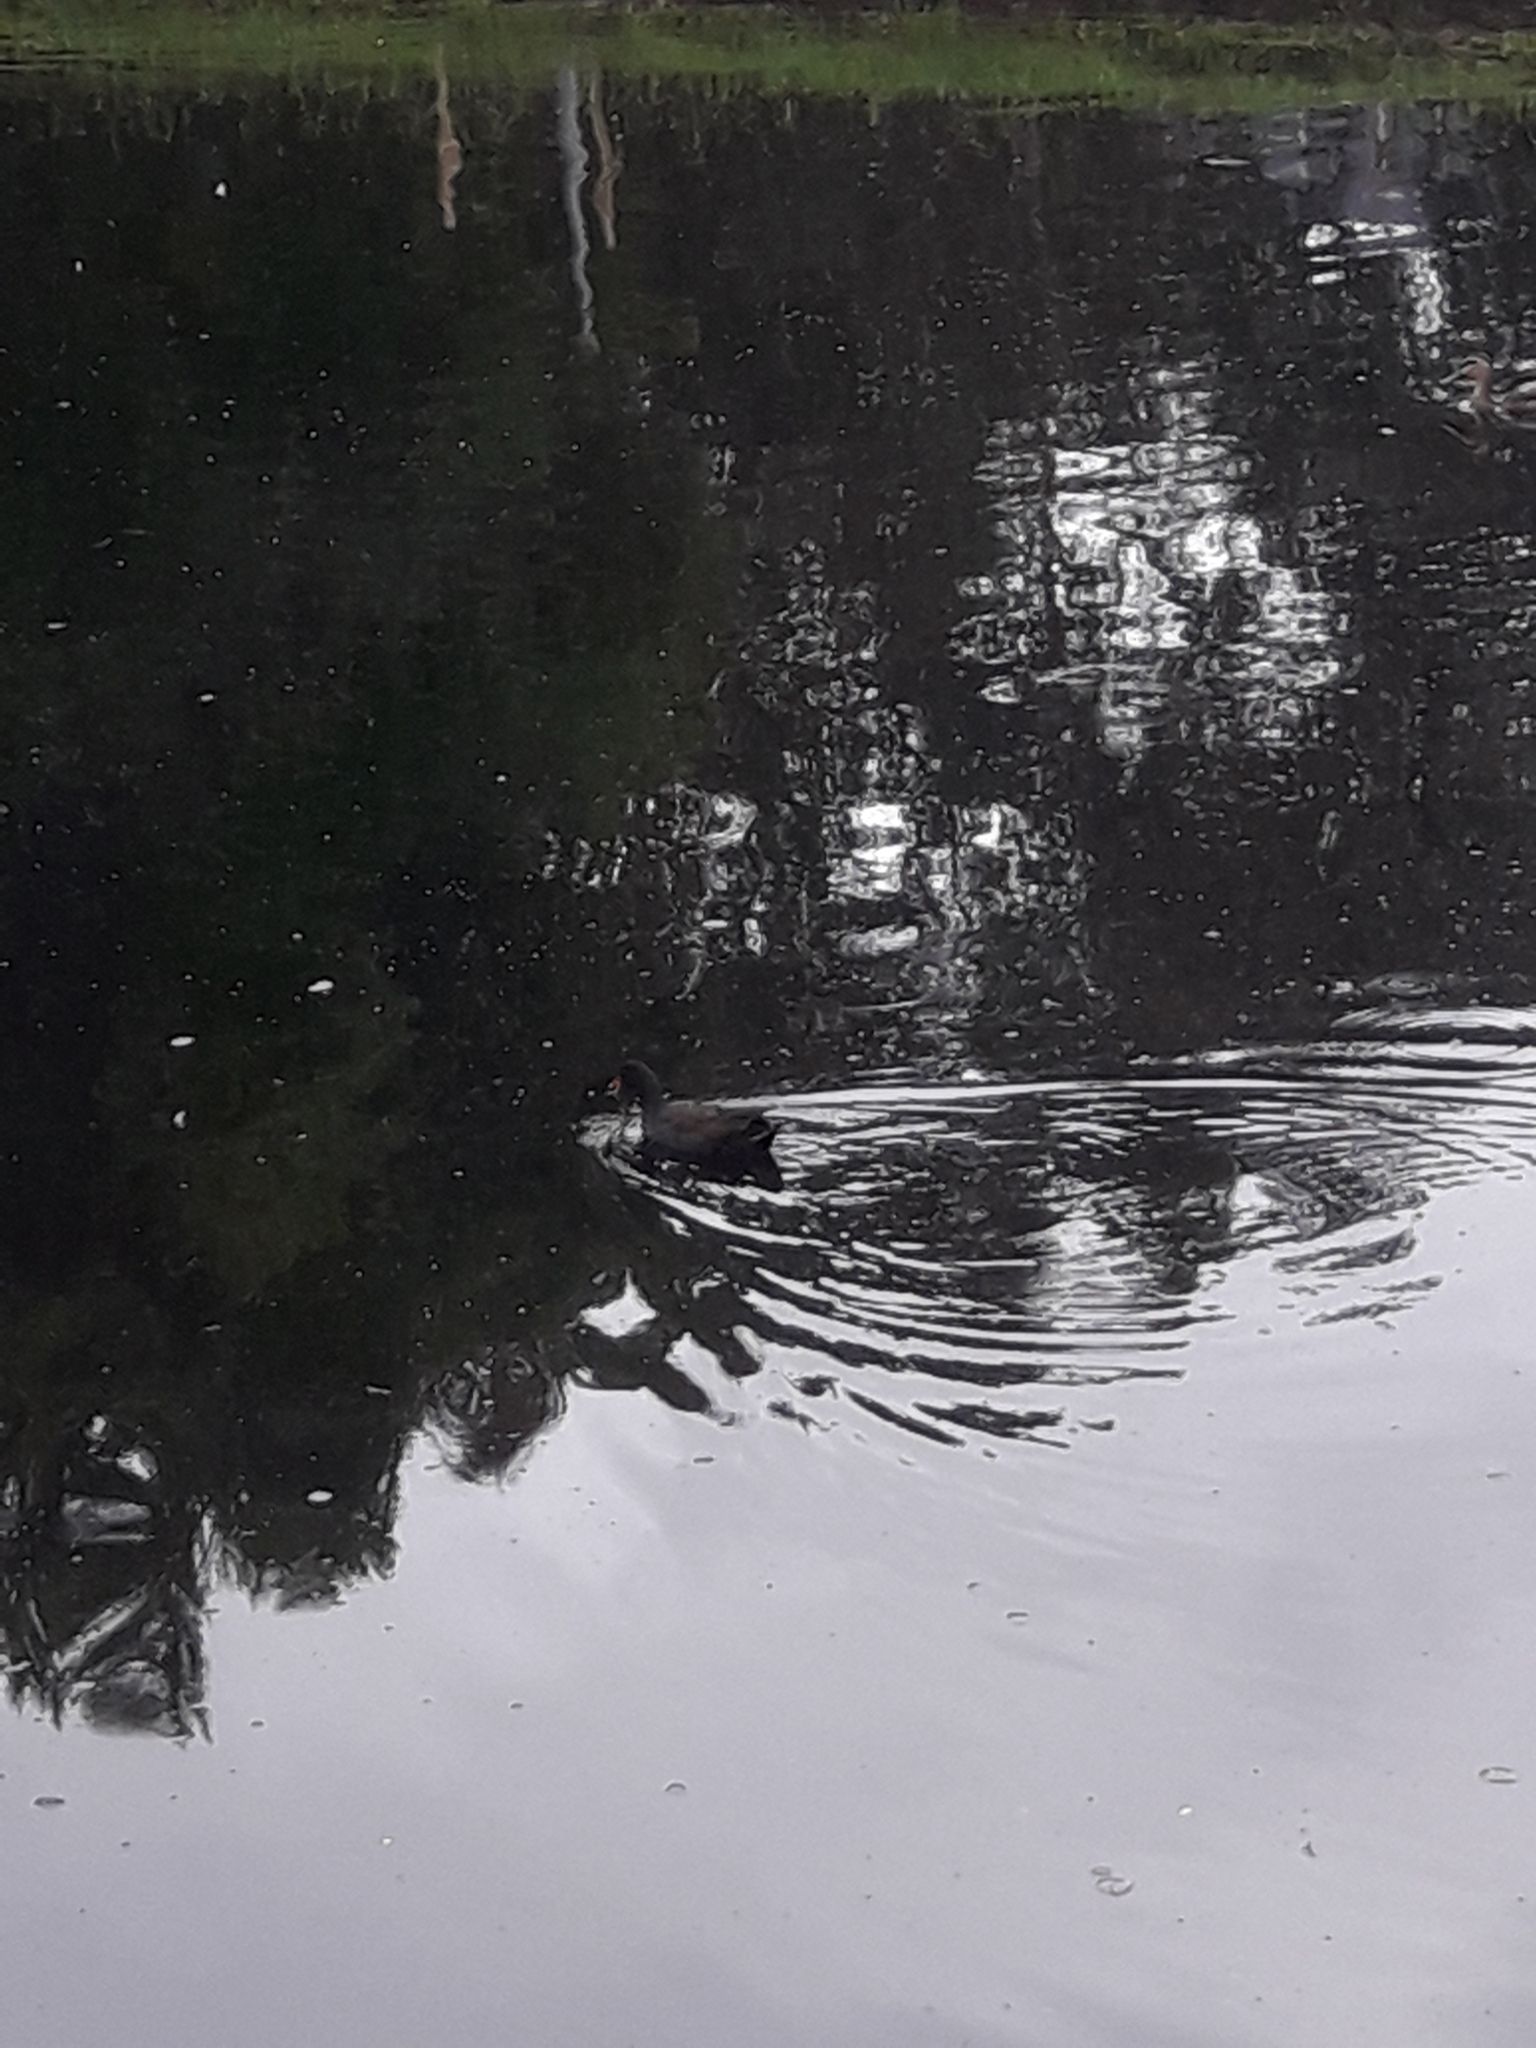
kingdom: Animalia
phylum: Chordata
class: Aves
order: Gruiformes
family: Rallidae
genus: Gallinula
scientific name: Gallinula tenebrosa
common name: Dusky moorhen
